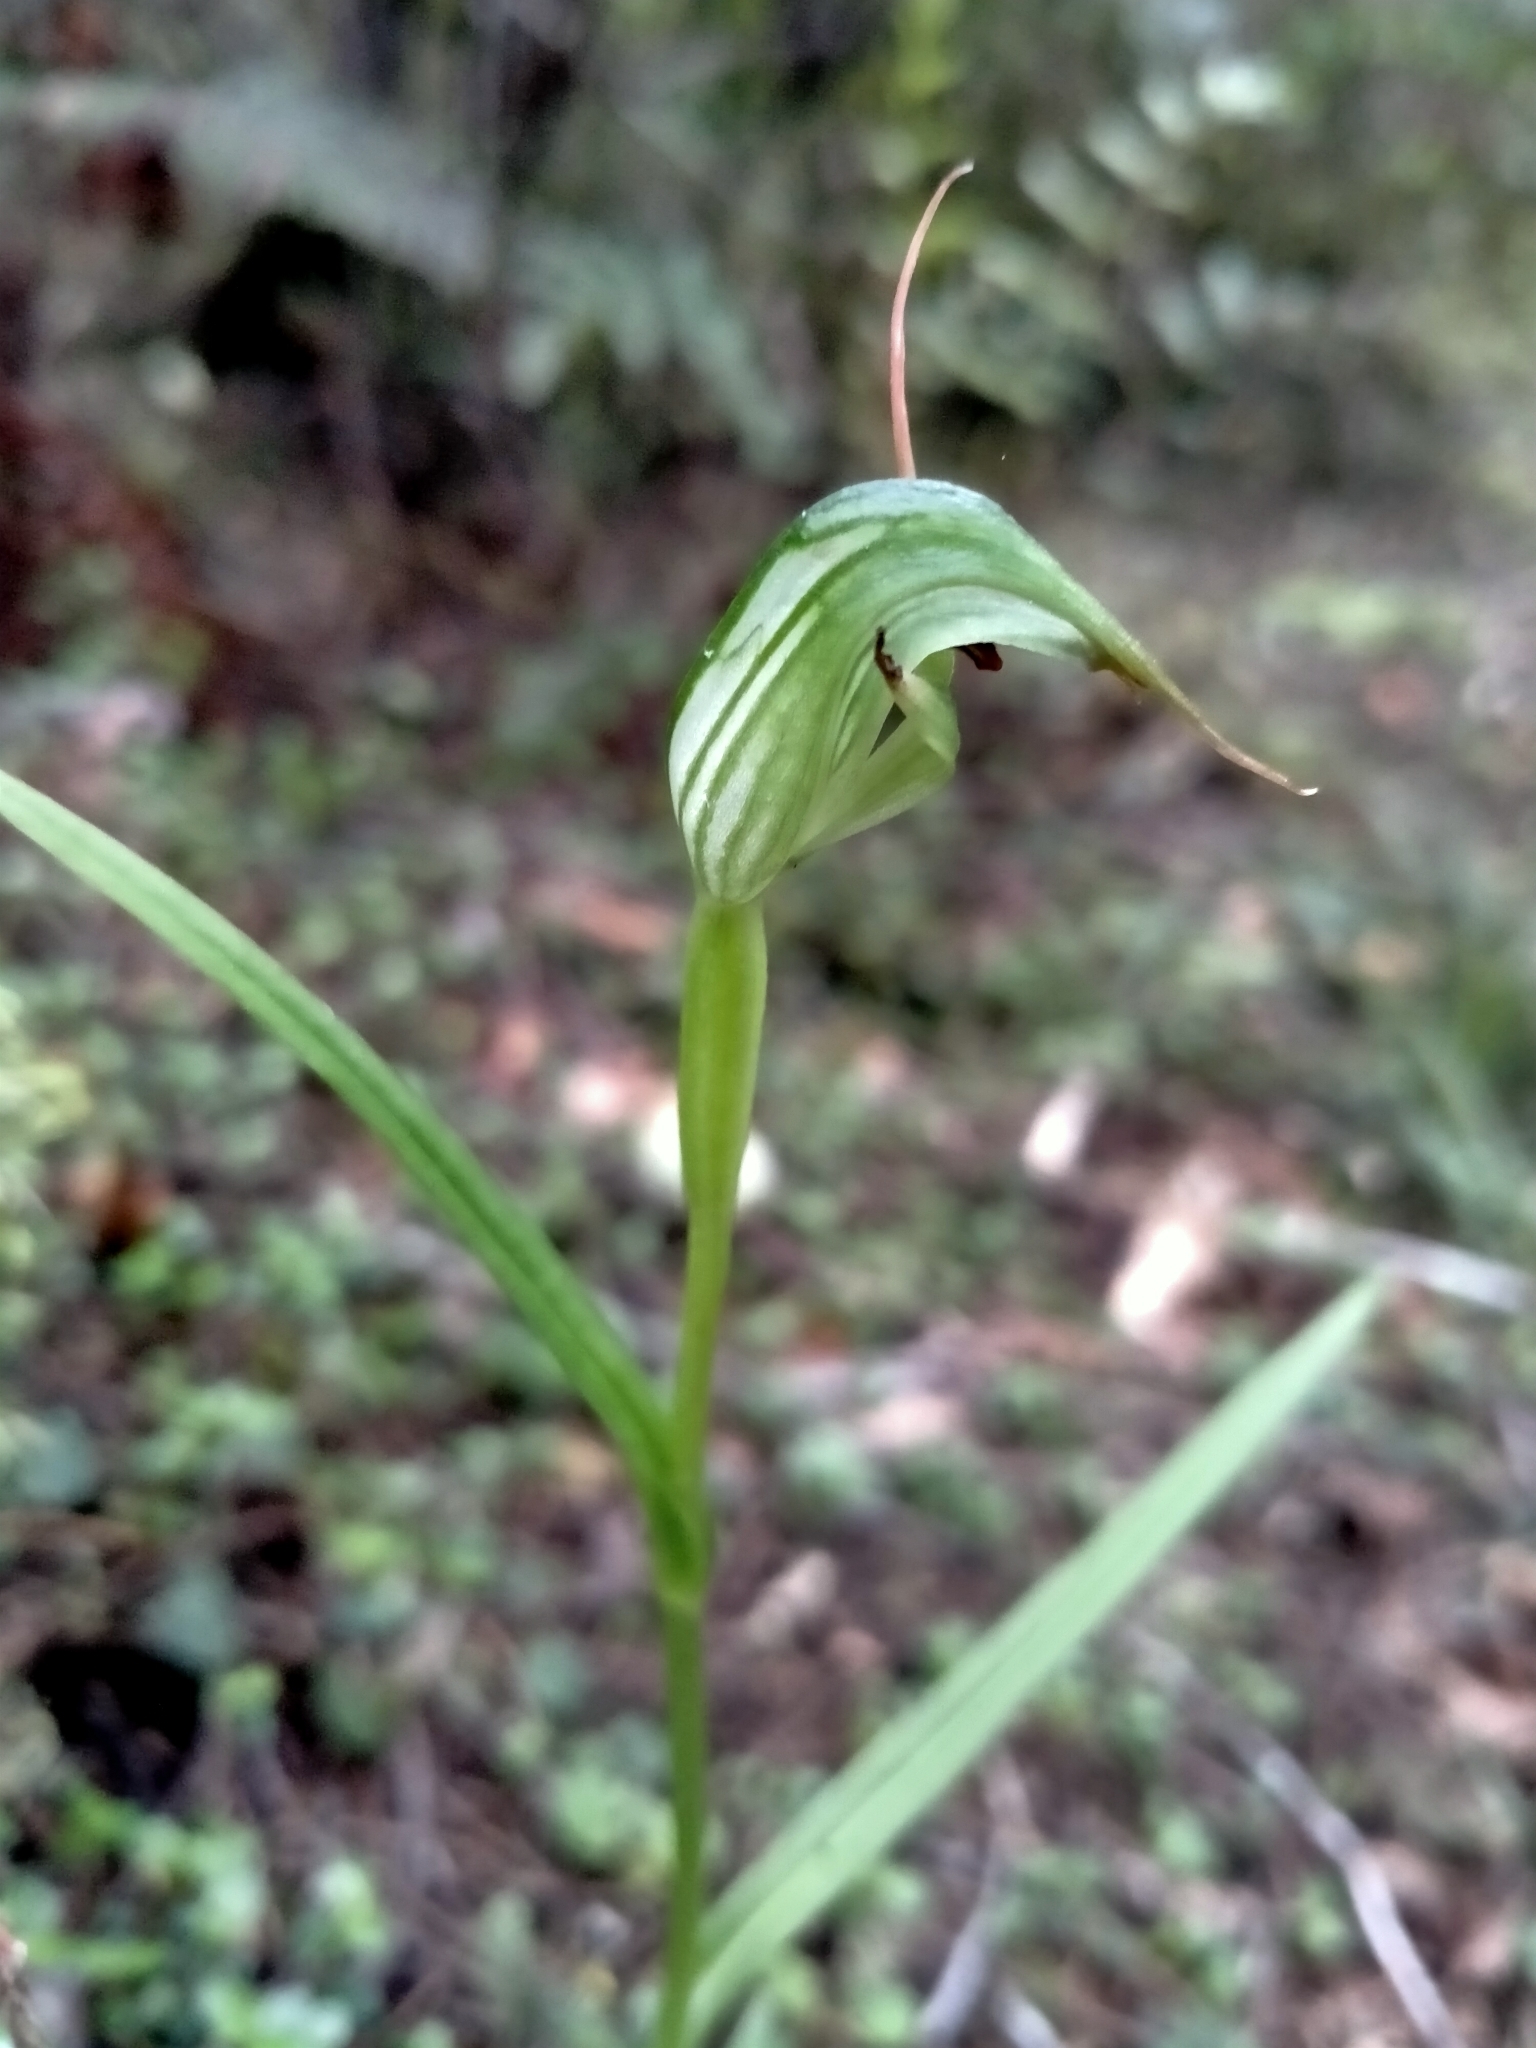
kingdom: Plantae
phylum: Tracheophyta
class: Liliopsida
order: Asparagales
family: Orchidaceae
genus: Pterostylis
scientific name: Pterostylis graminea
